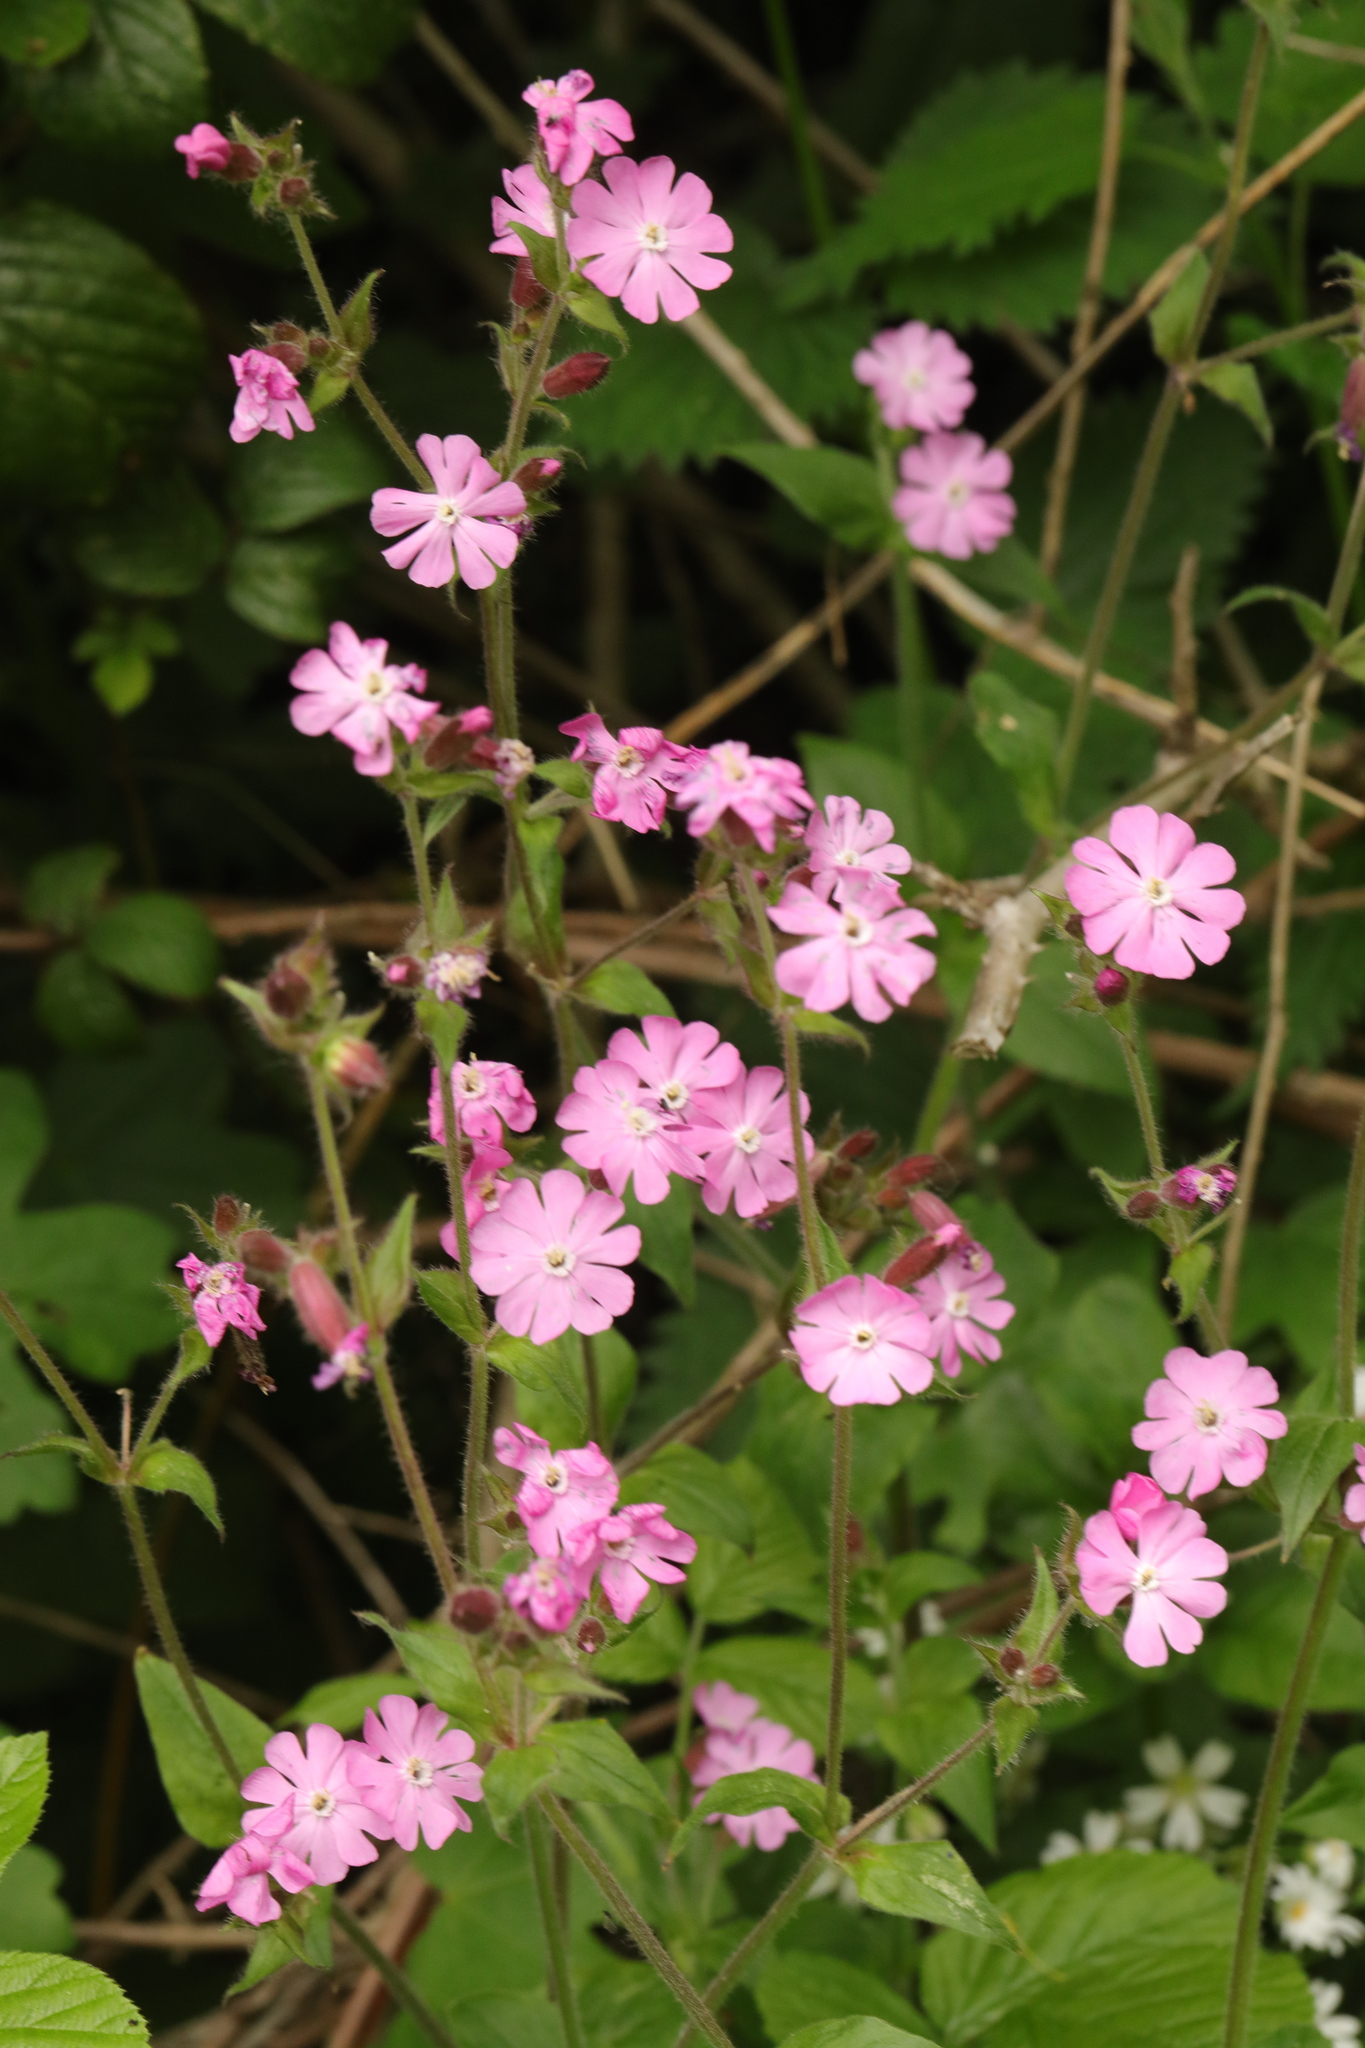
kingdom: Plantae
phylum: Tracheophyta
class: Magnoliopsida
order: Caryophyllales
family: Caryophyllaceae
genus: Silene
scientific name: Silene dioica
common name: Red campion
